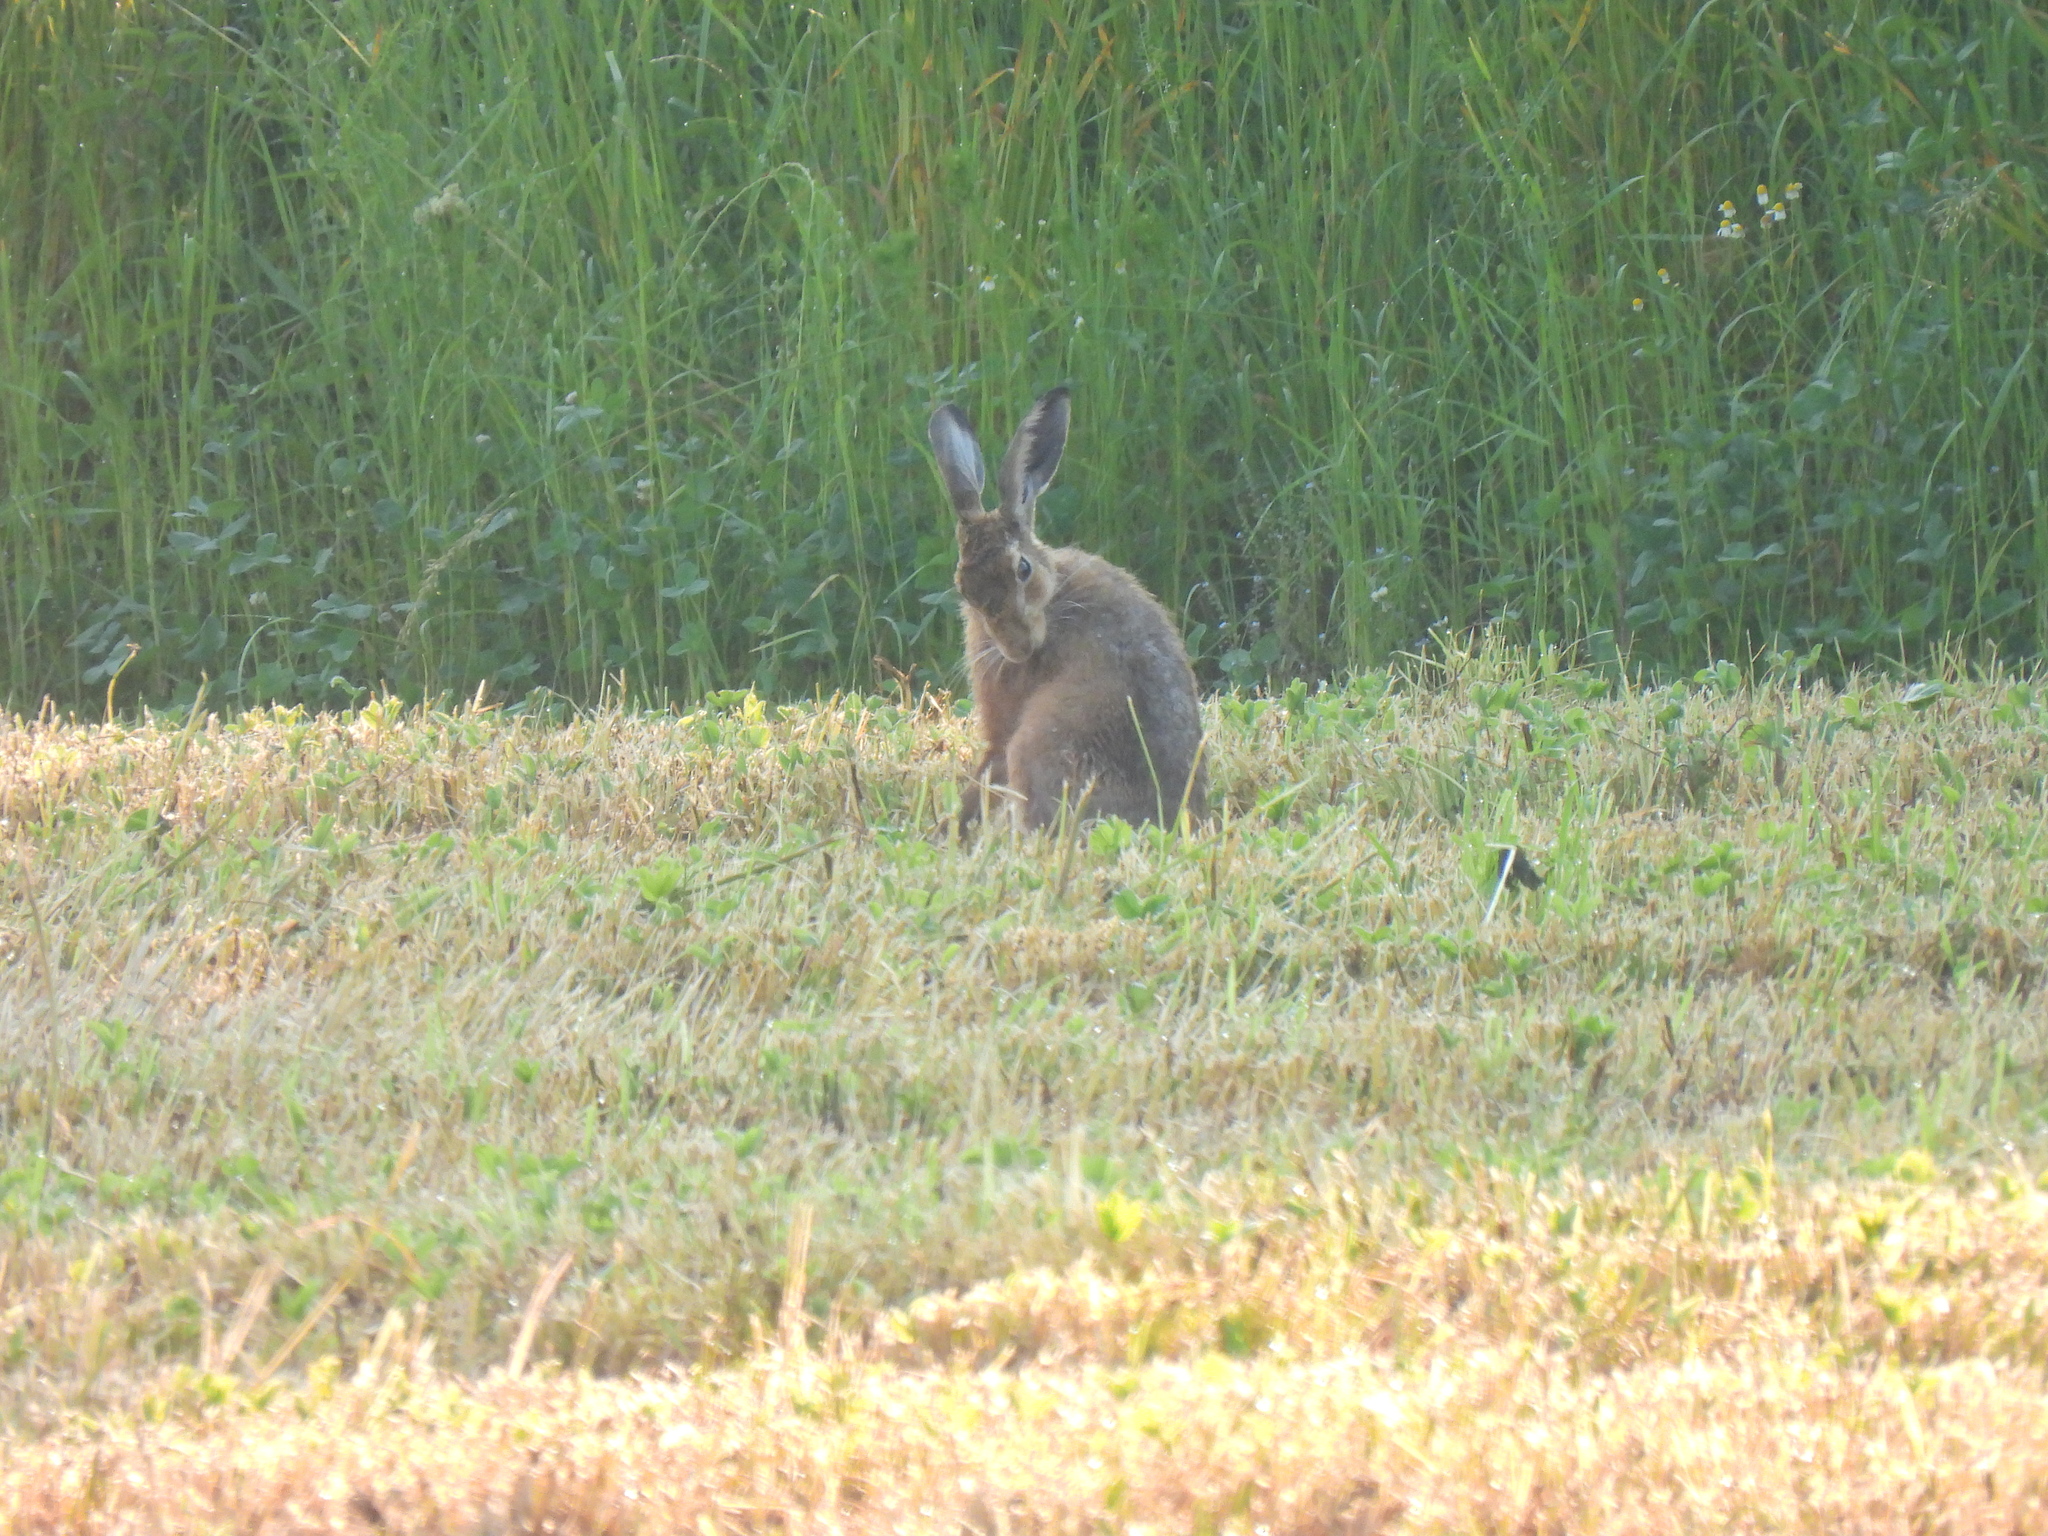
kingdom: Animalia
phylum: Chordata
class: Mammalia
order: Lagomorpha
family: Leporidae
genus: Lepus
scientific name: Lepus europaeus
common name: European hare
